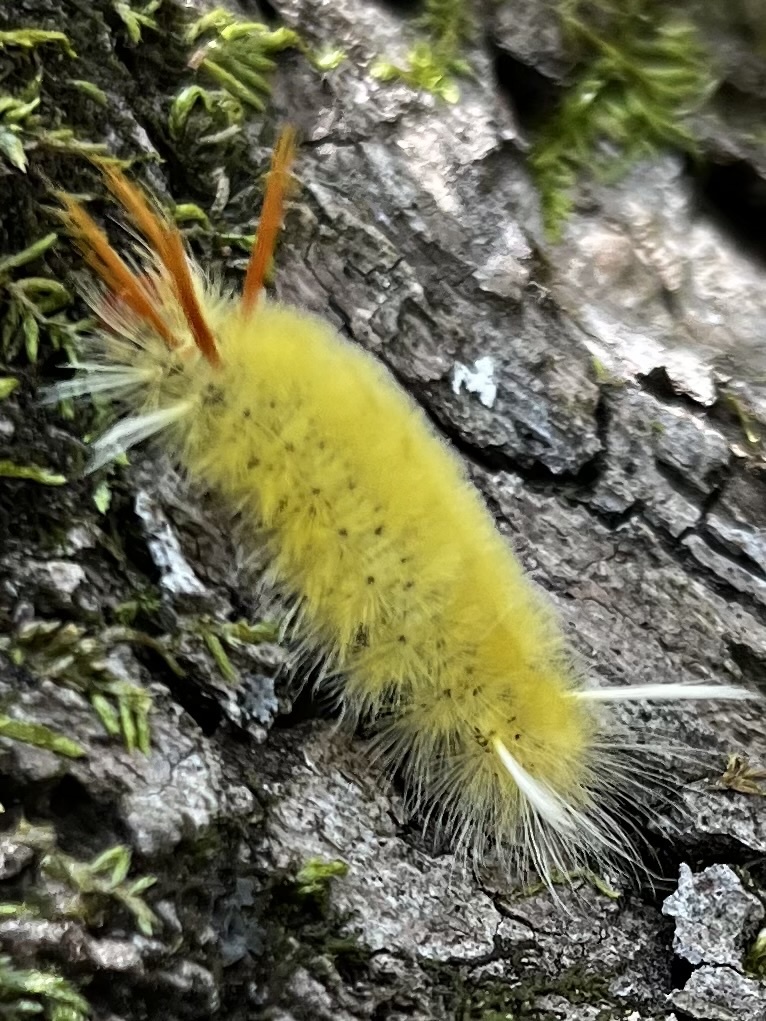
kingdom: Animalia
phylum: Arthropoda
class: Insecta
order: Lepidoptera
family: Erebidae
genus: Halysidota
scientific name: Halysidota harrisii
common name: Sycamore tussock moth
